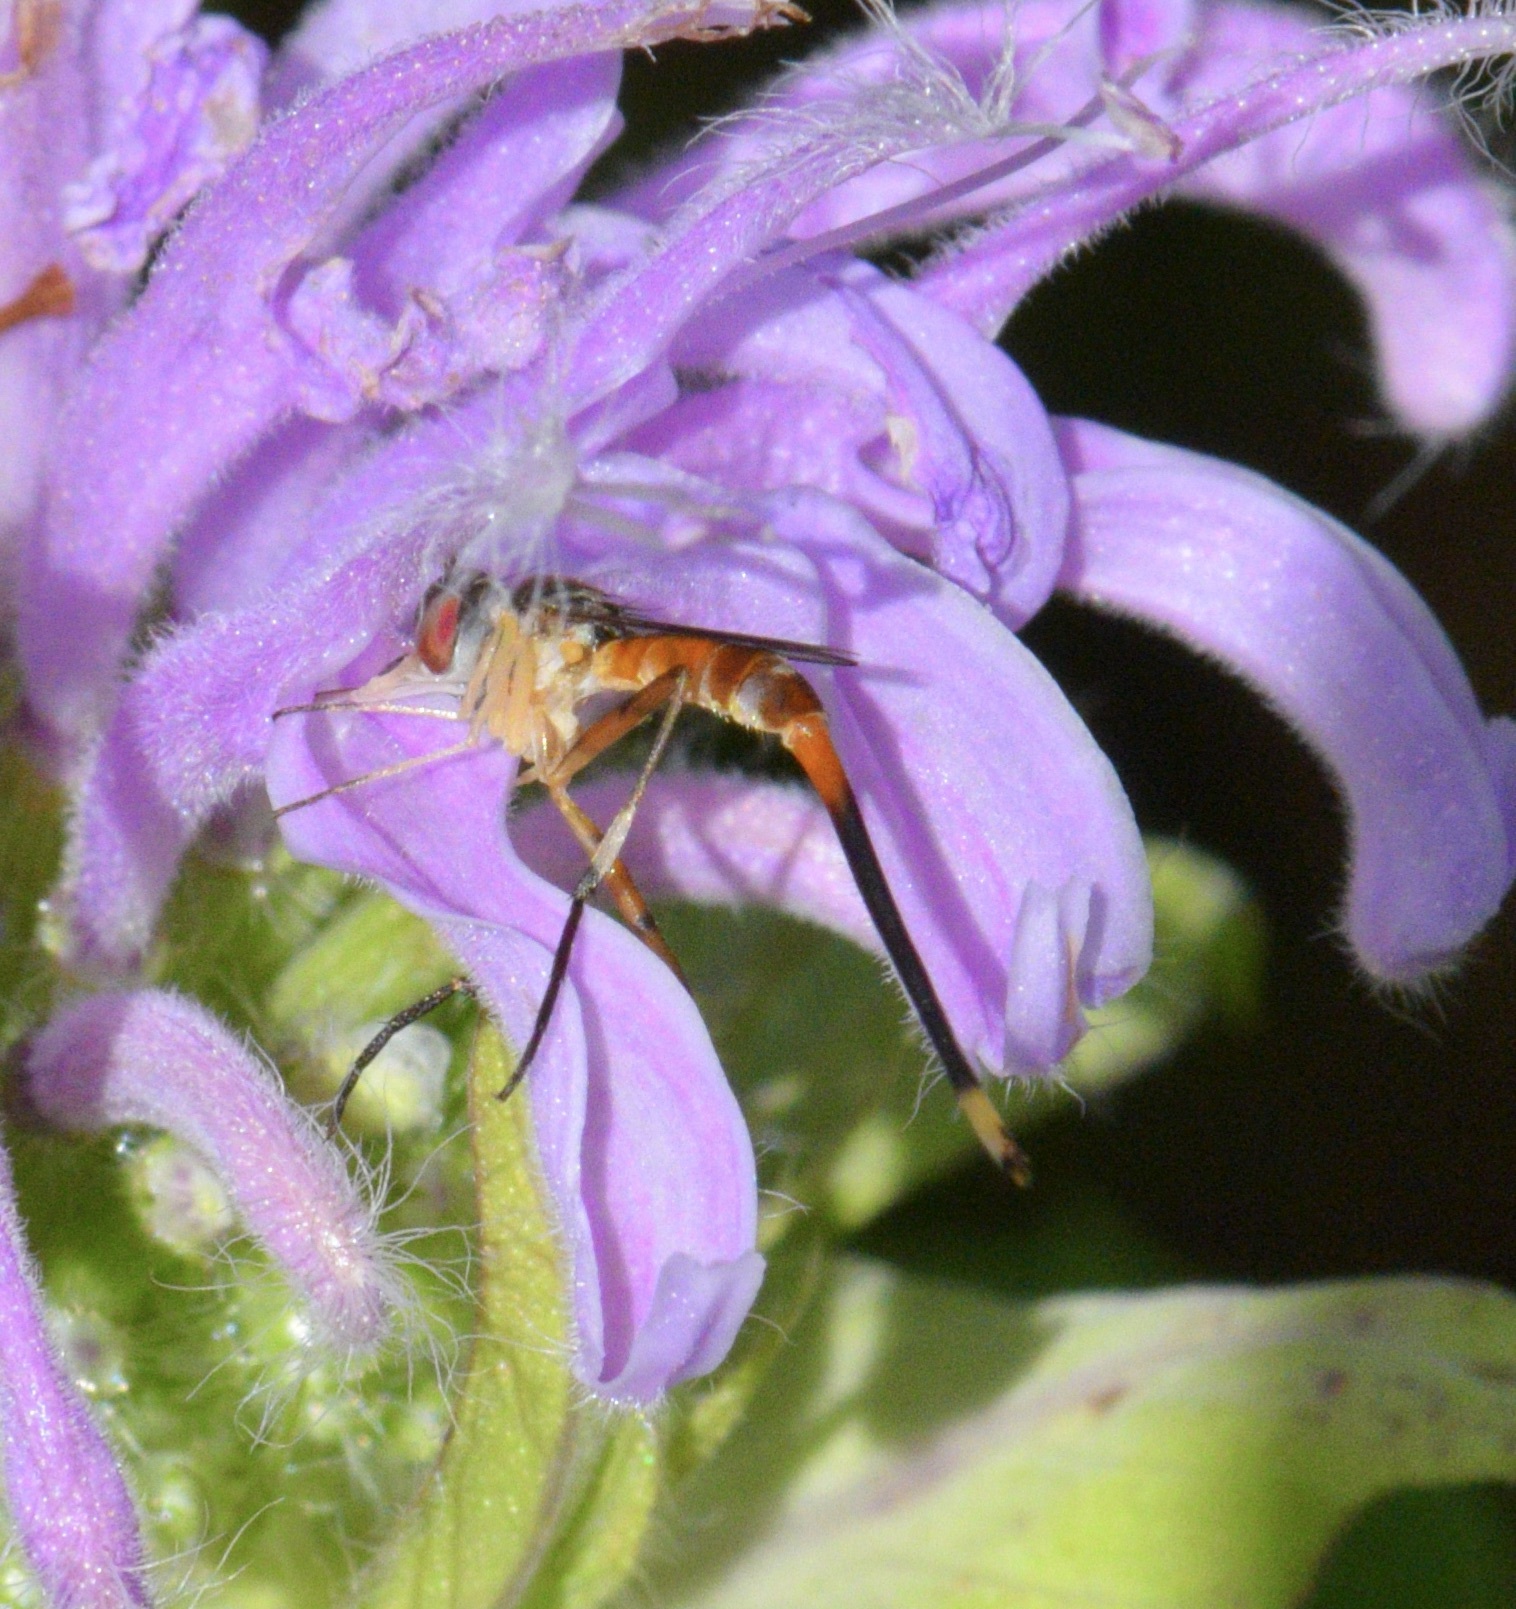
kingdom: Animalia
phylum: Arthropoda
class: Insecta
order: Diptera
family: Conopidae
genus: Stylogaster
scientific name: Stylogaster neglecta
